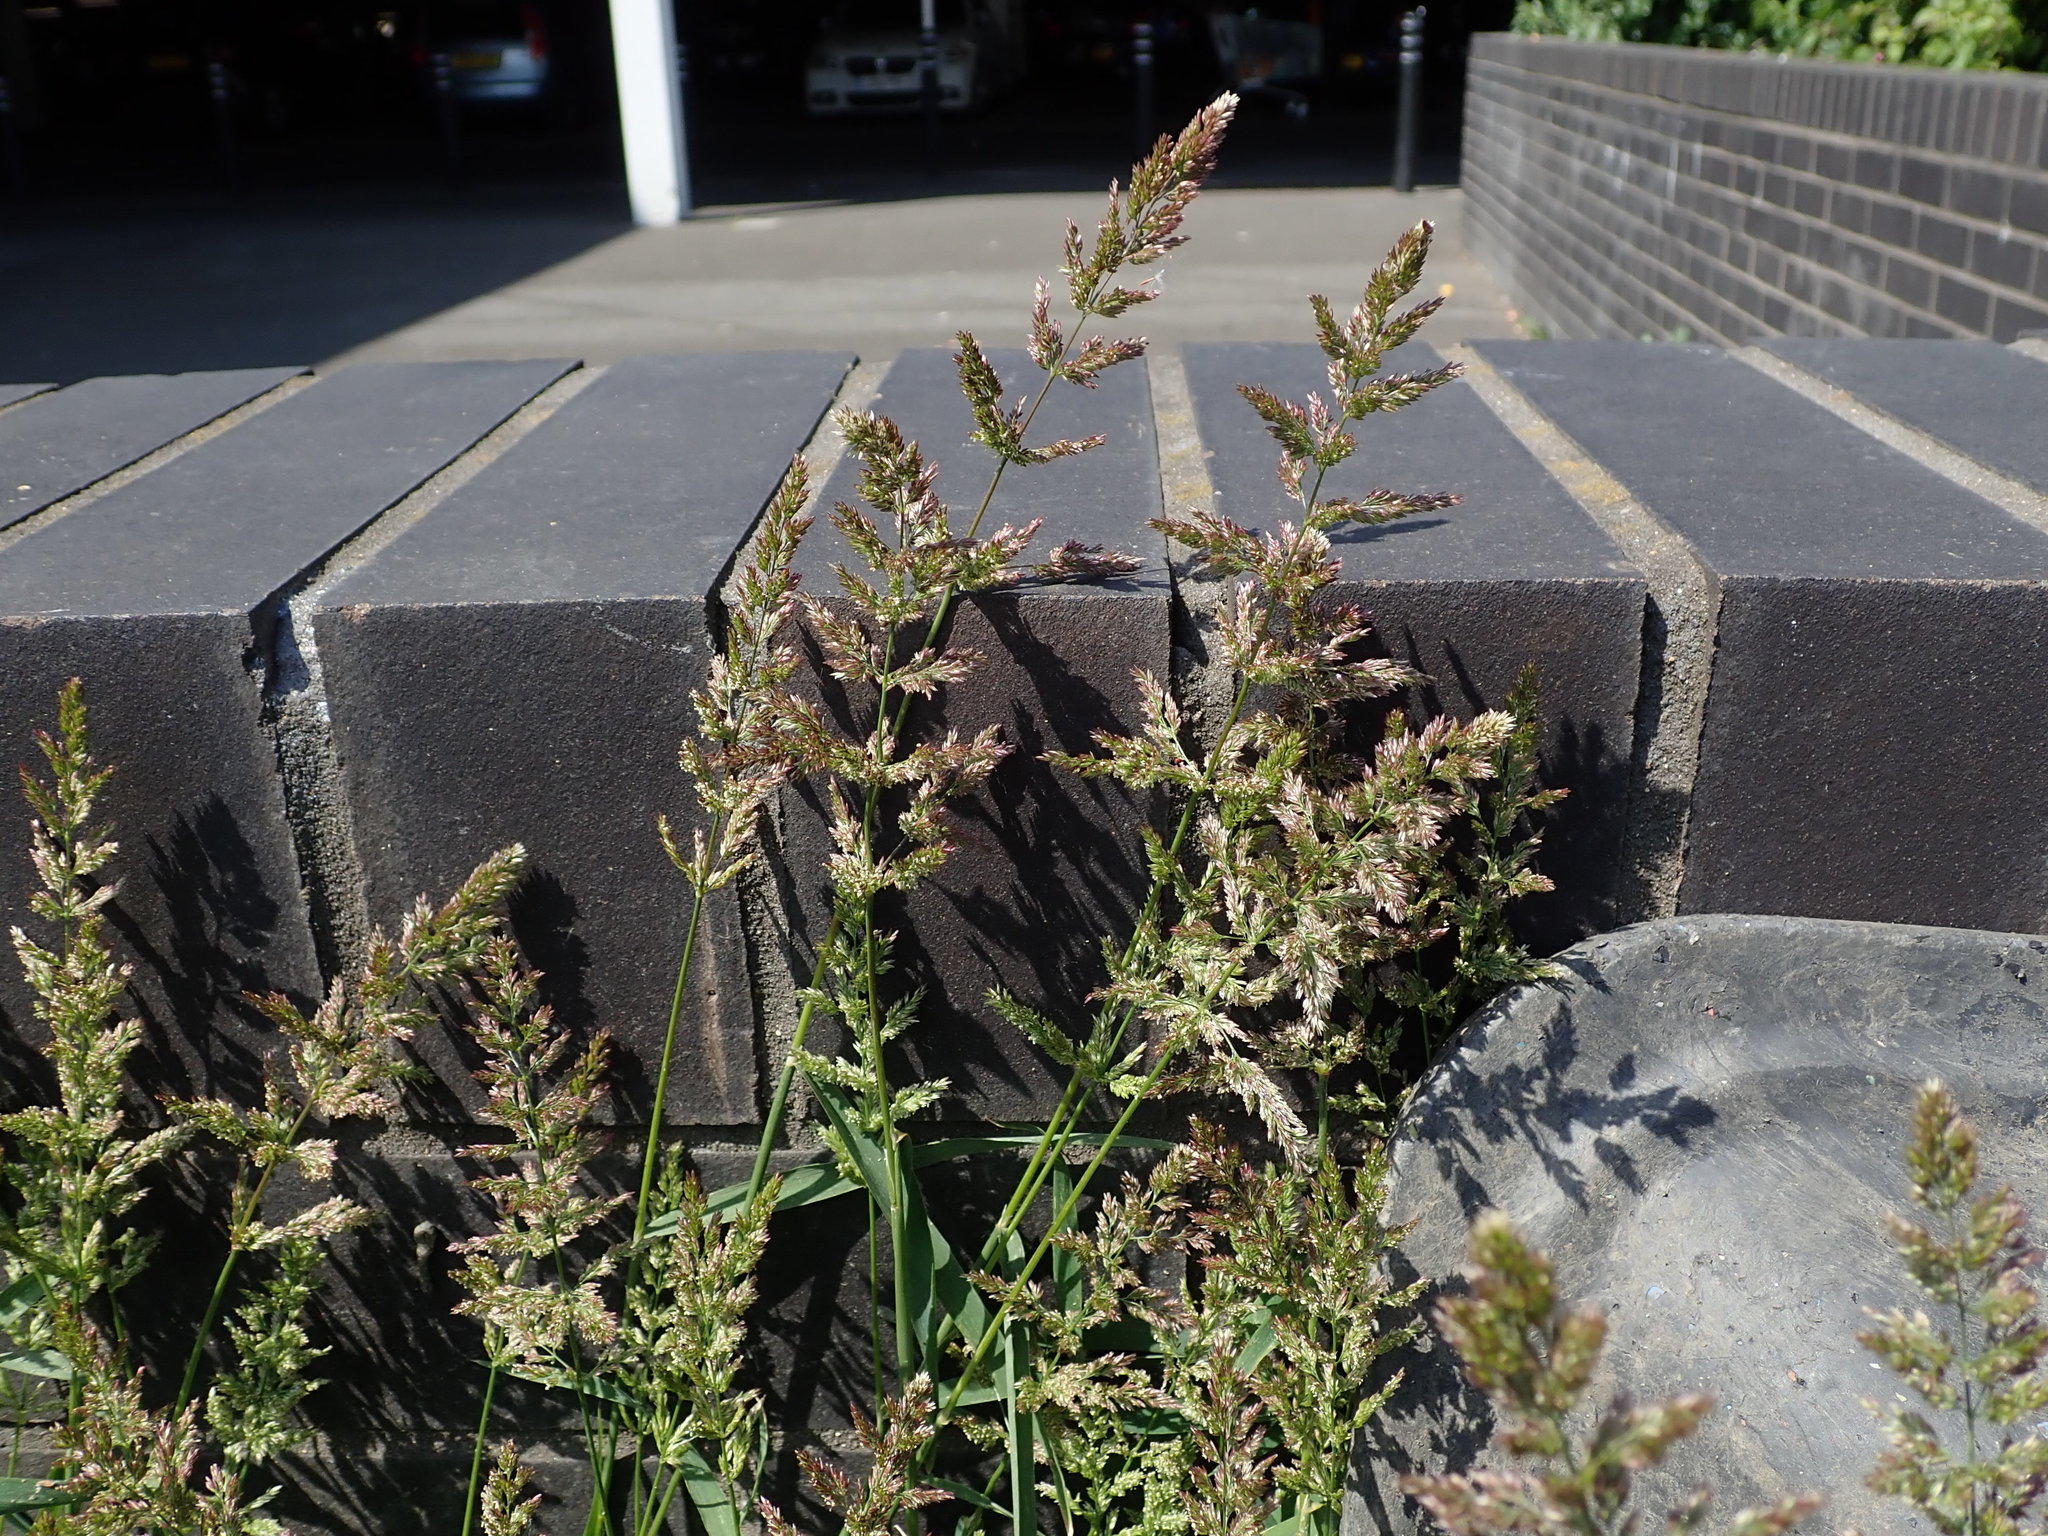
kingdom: Plantae
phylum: Tracheophyta
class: Liliopsida
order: Poales
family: Poaceae
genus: Polypogon
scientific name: Polypogon viridis
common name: Water bent
